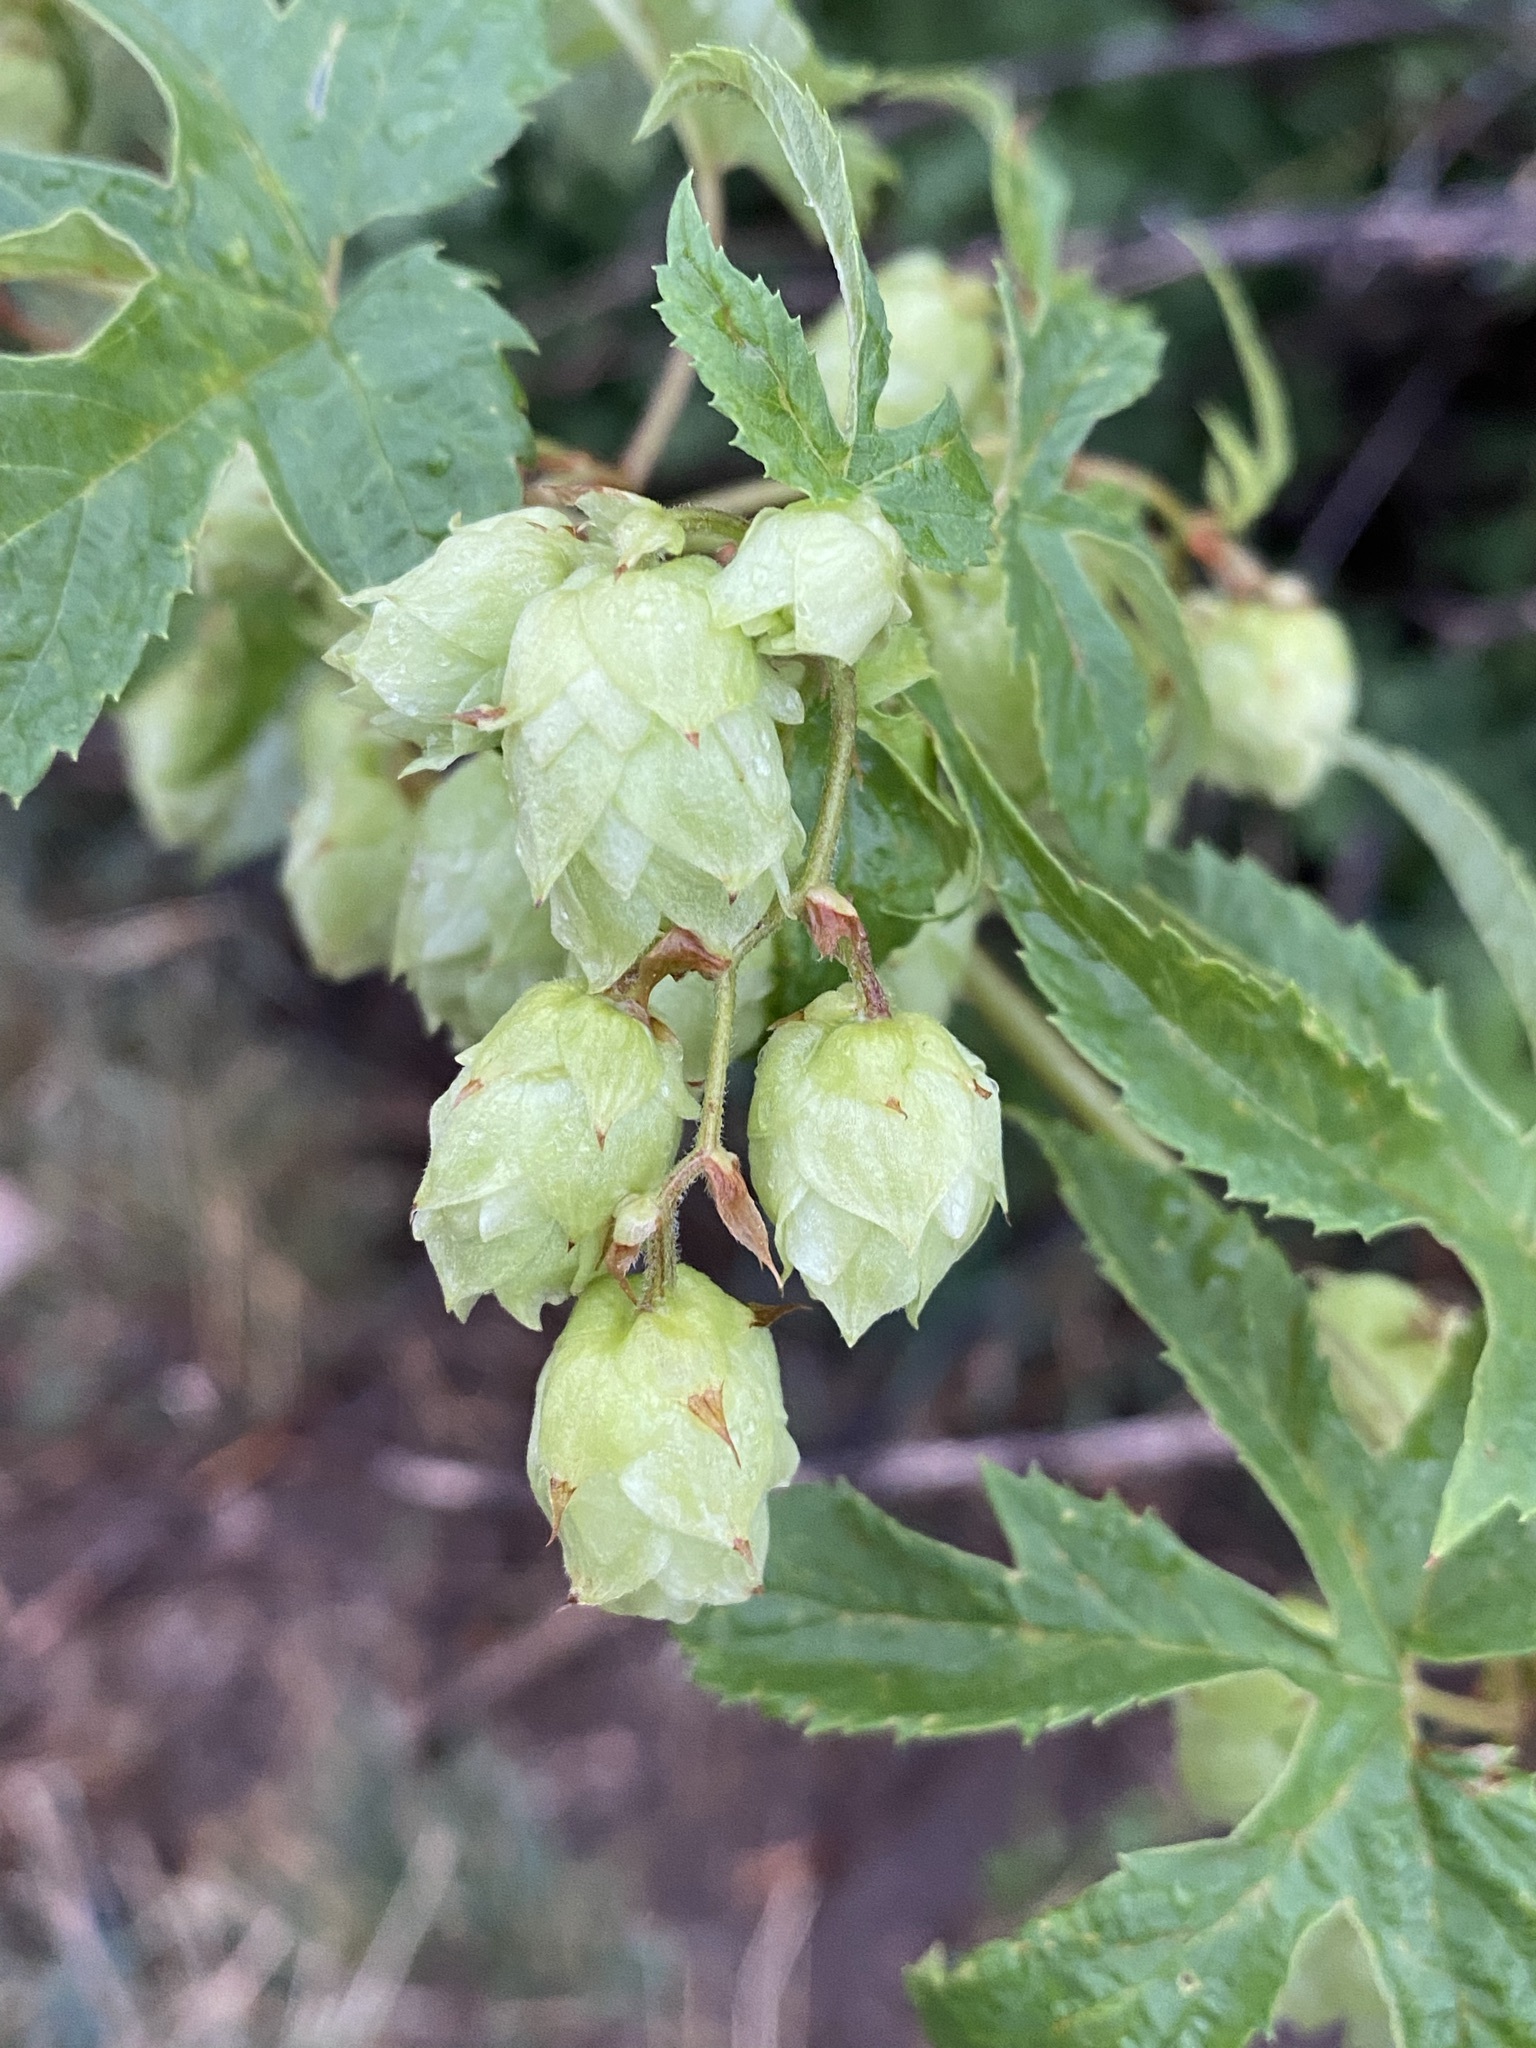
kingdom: Plantae
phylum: Tracheophyta
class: Magnoliopsida
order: Rosales
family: Cannabaceae
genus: Humulus
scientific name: Humulus lupulus
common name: Hop
